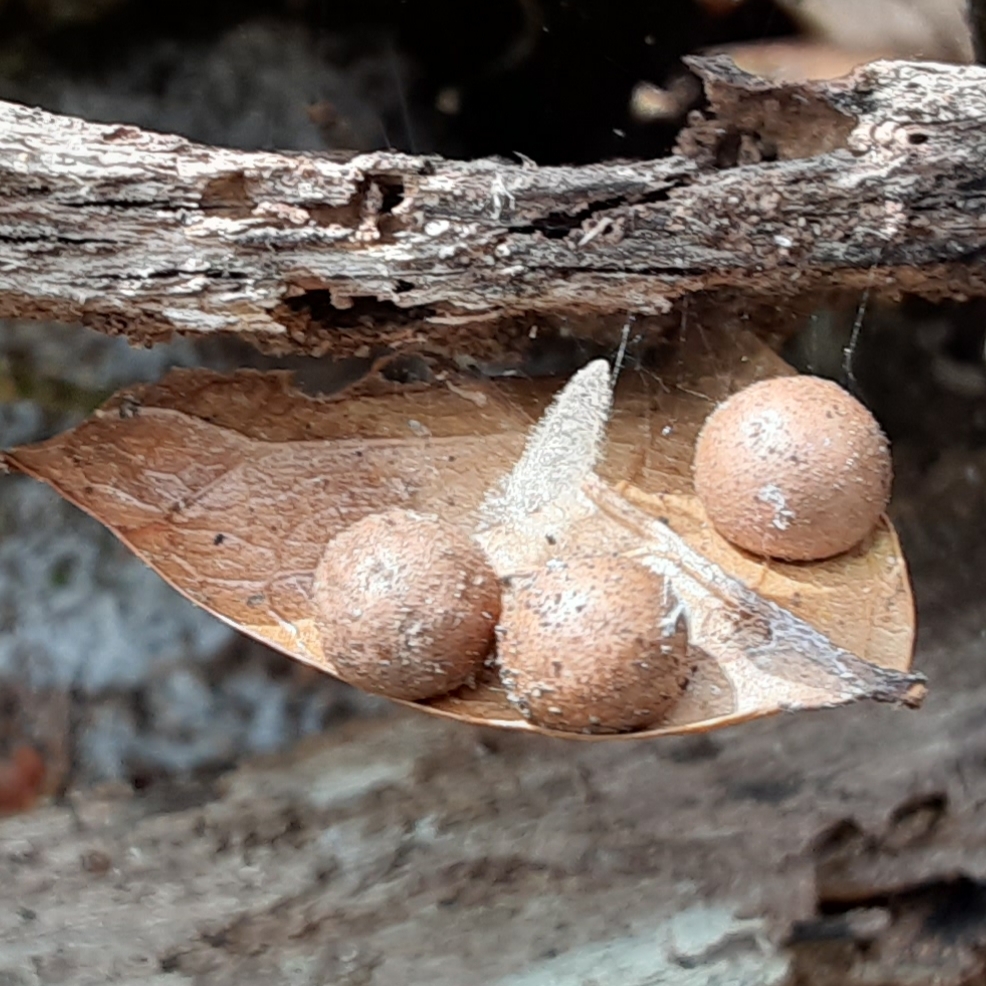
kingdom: Animalia
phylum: Arthropoda
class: Insecta
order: Hymenoptera
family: Cynipidae
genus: Belonocnema
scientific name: Belonocnema treatae
